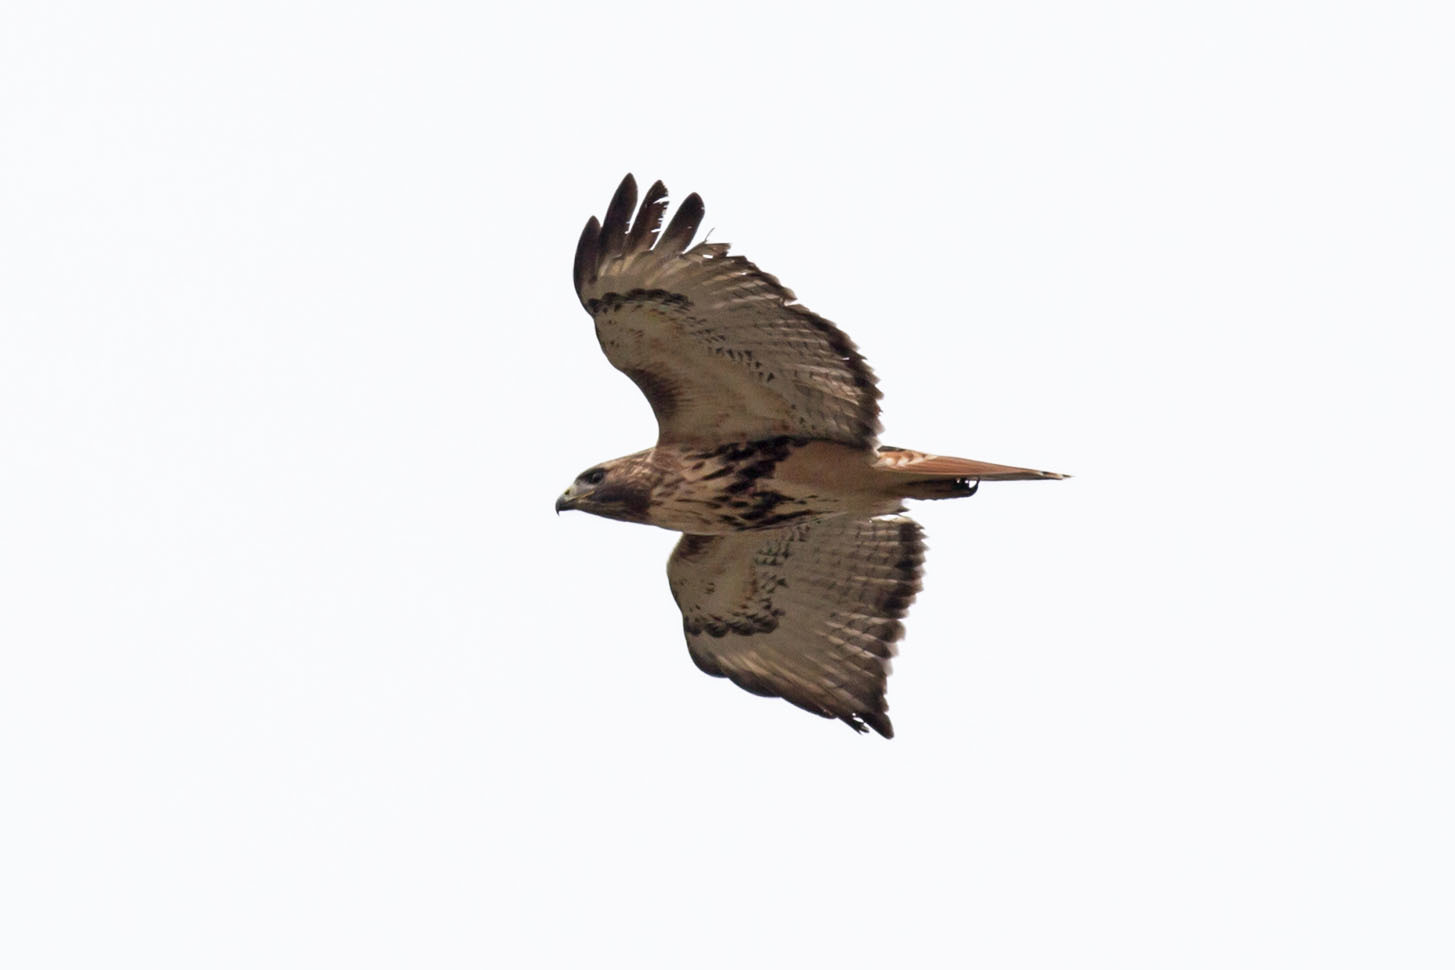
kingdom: Animalia
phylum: Chordata
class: Aves
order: Accipitriformes
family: Accipitridae
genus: Buteo
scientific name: Buteo jamaicensis
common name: Red-tailed hawk
